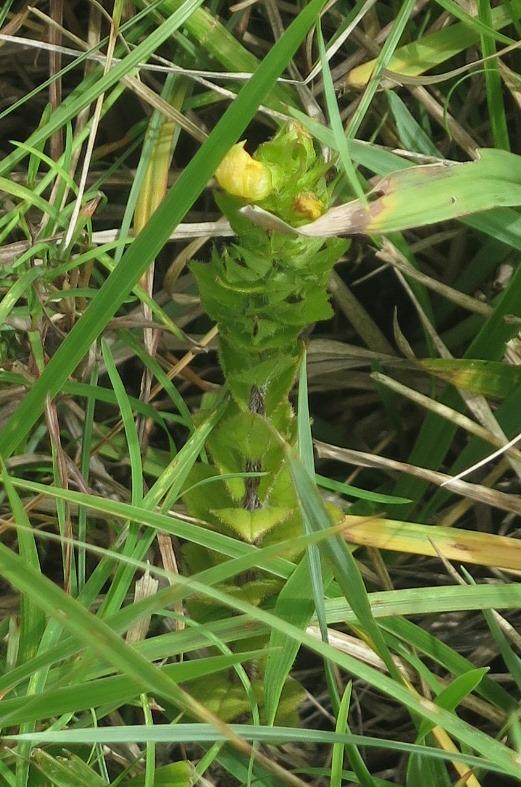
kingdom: Plantae
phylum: Tracheophyta
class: Magnoliopsida
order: Lamiales
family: Orobanchaceae
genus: Alectra
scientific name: Alectra sessiliflora
